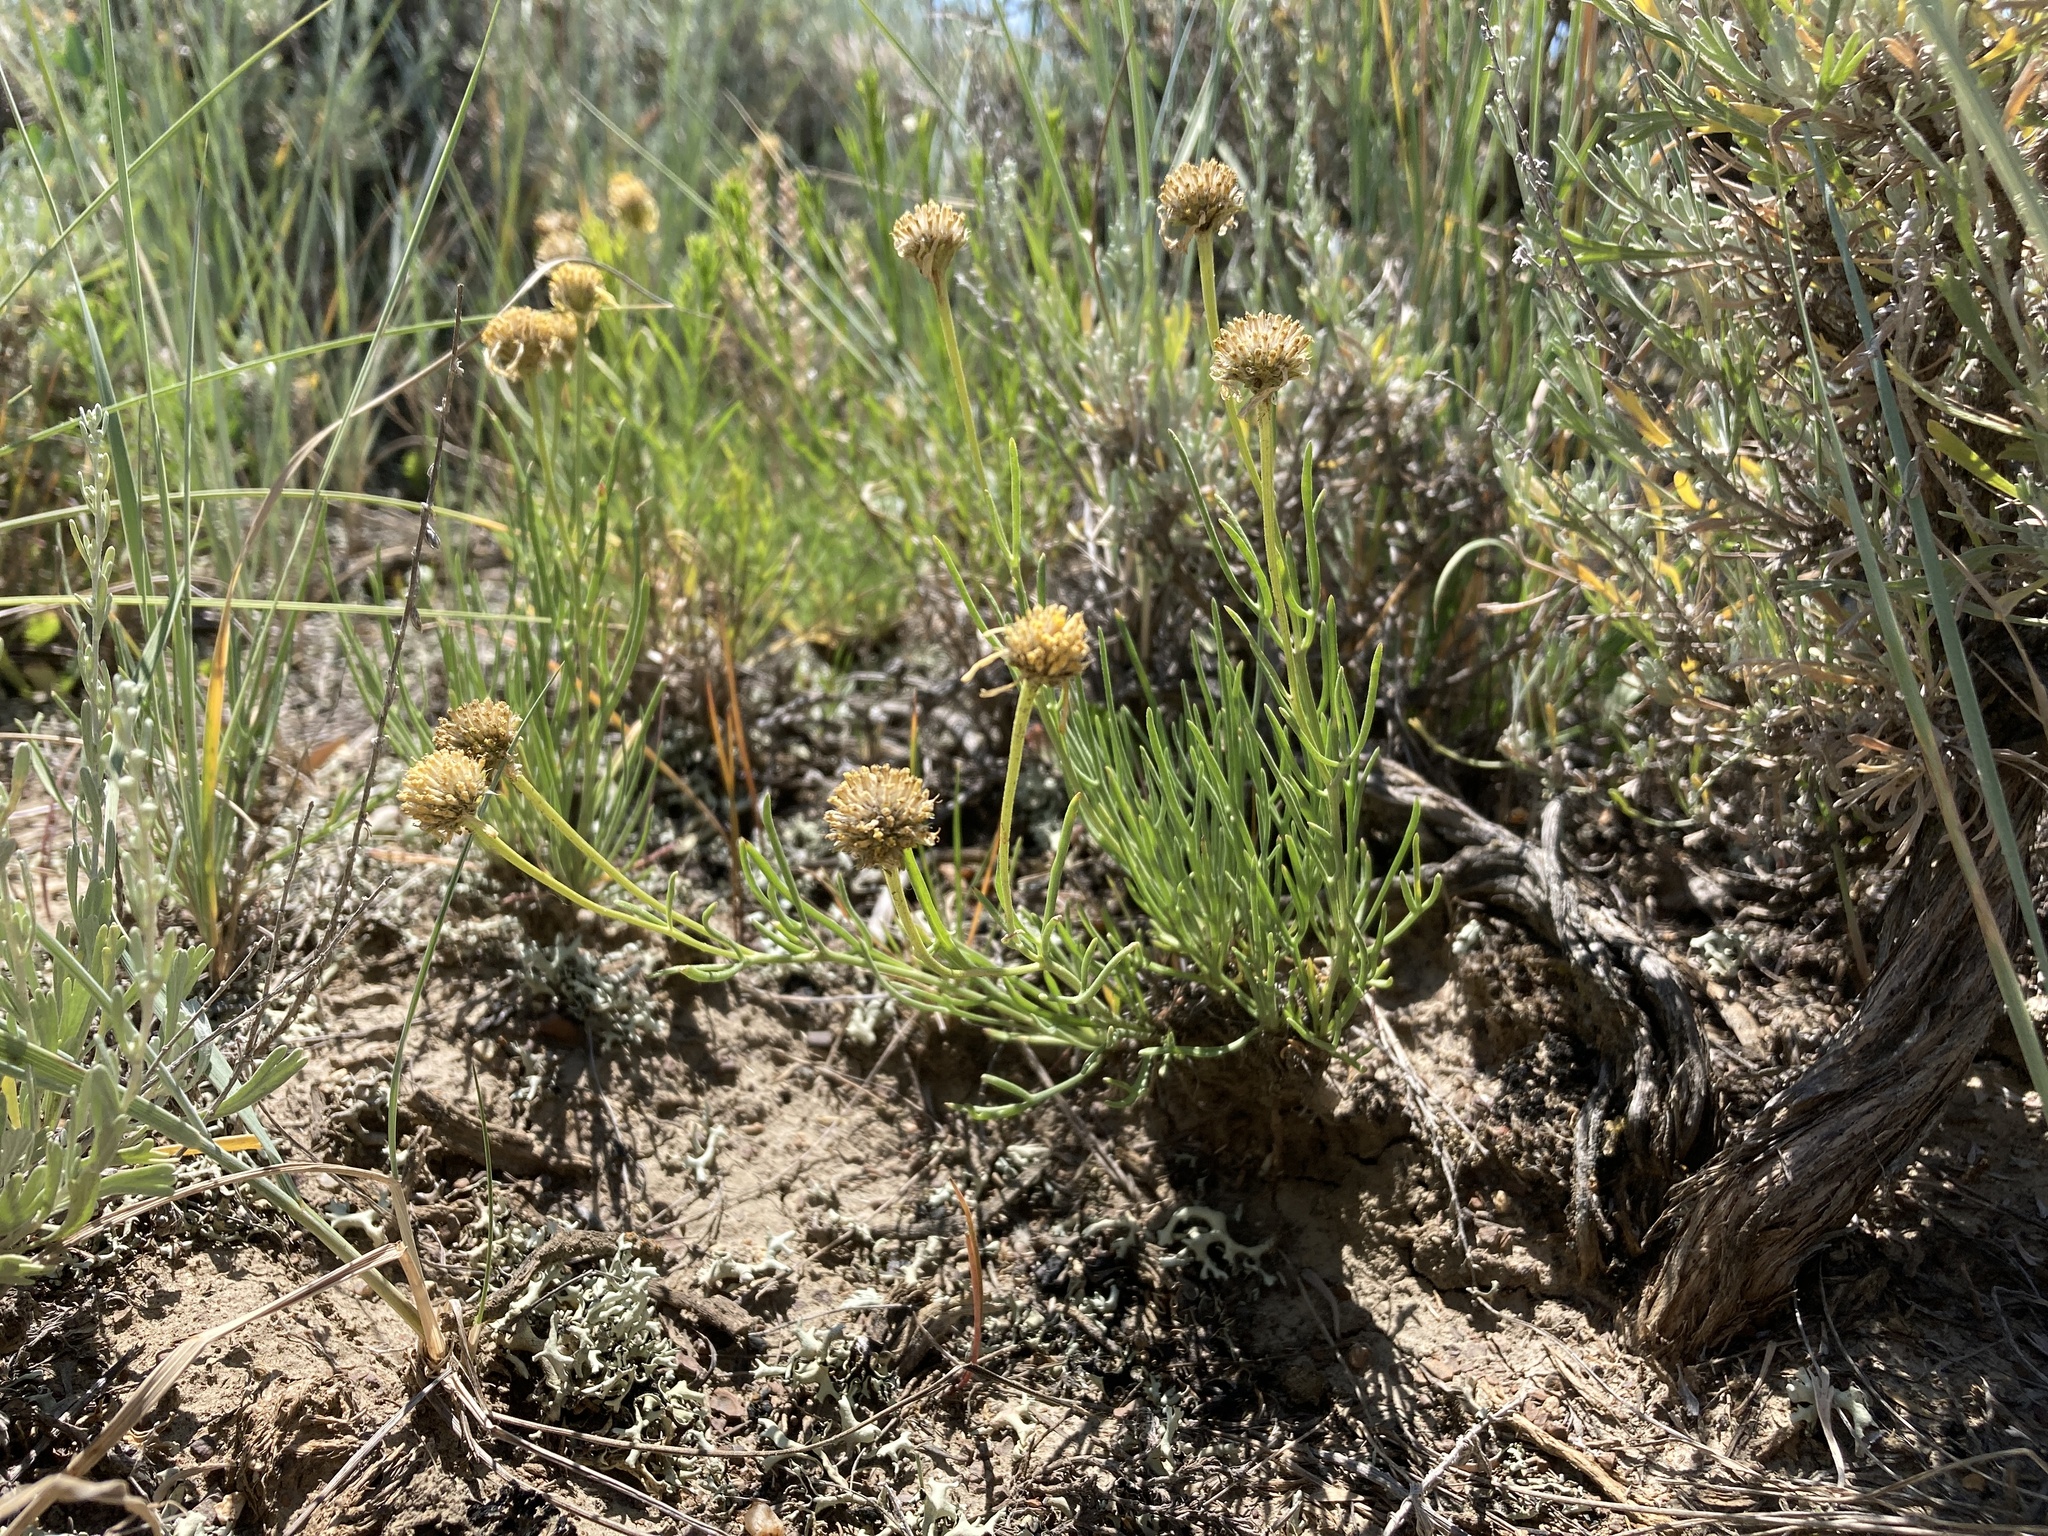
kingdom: Plantae
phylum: Tracheophyta
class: Magnoliopsida
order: Asterales
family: Asteraceae
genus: Hymenoxys
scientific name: Hymenoxys richardsonii
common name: Pingue rubberweed
